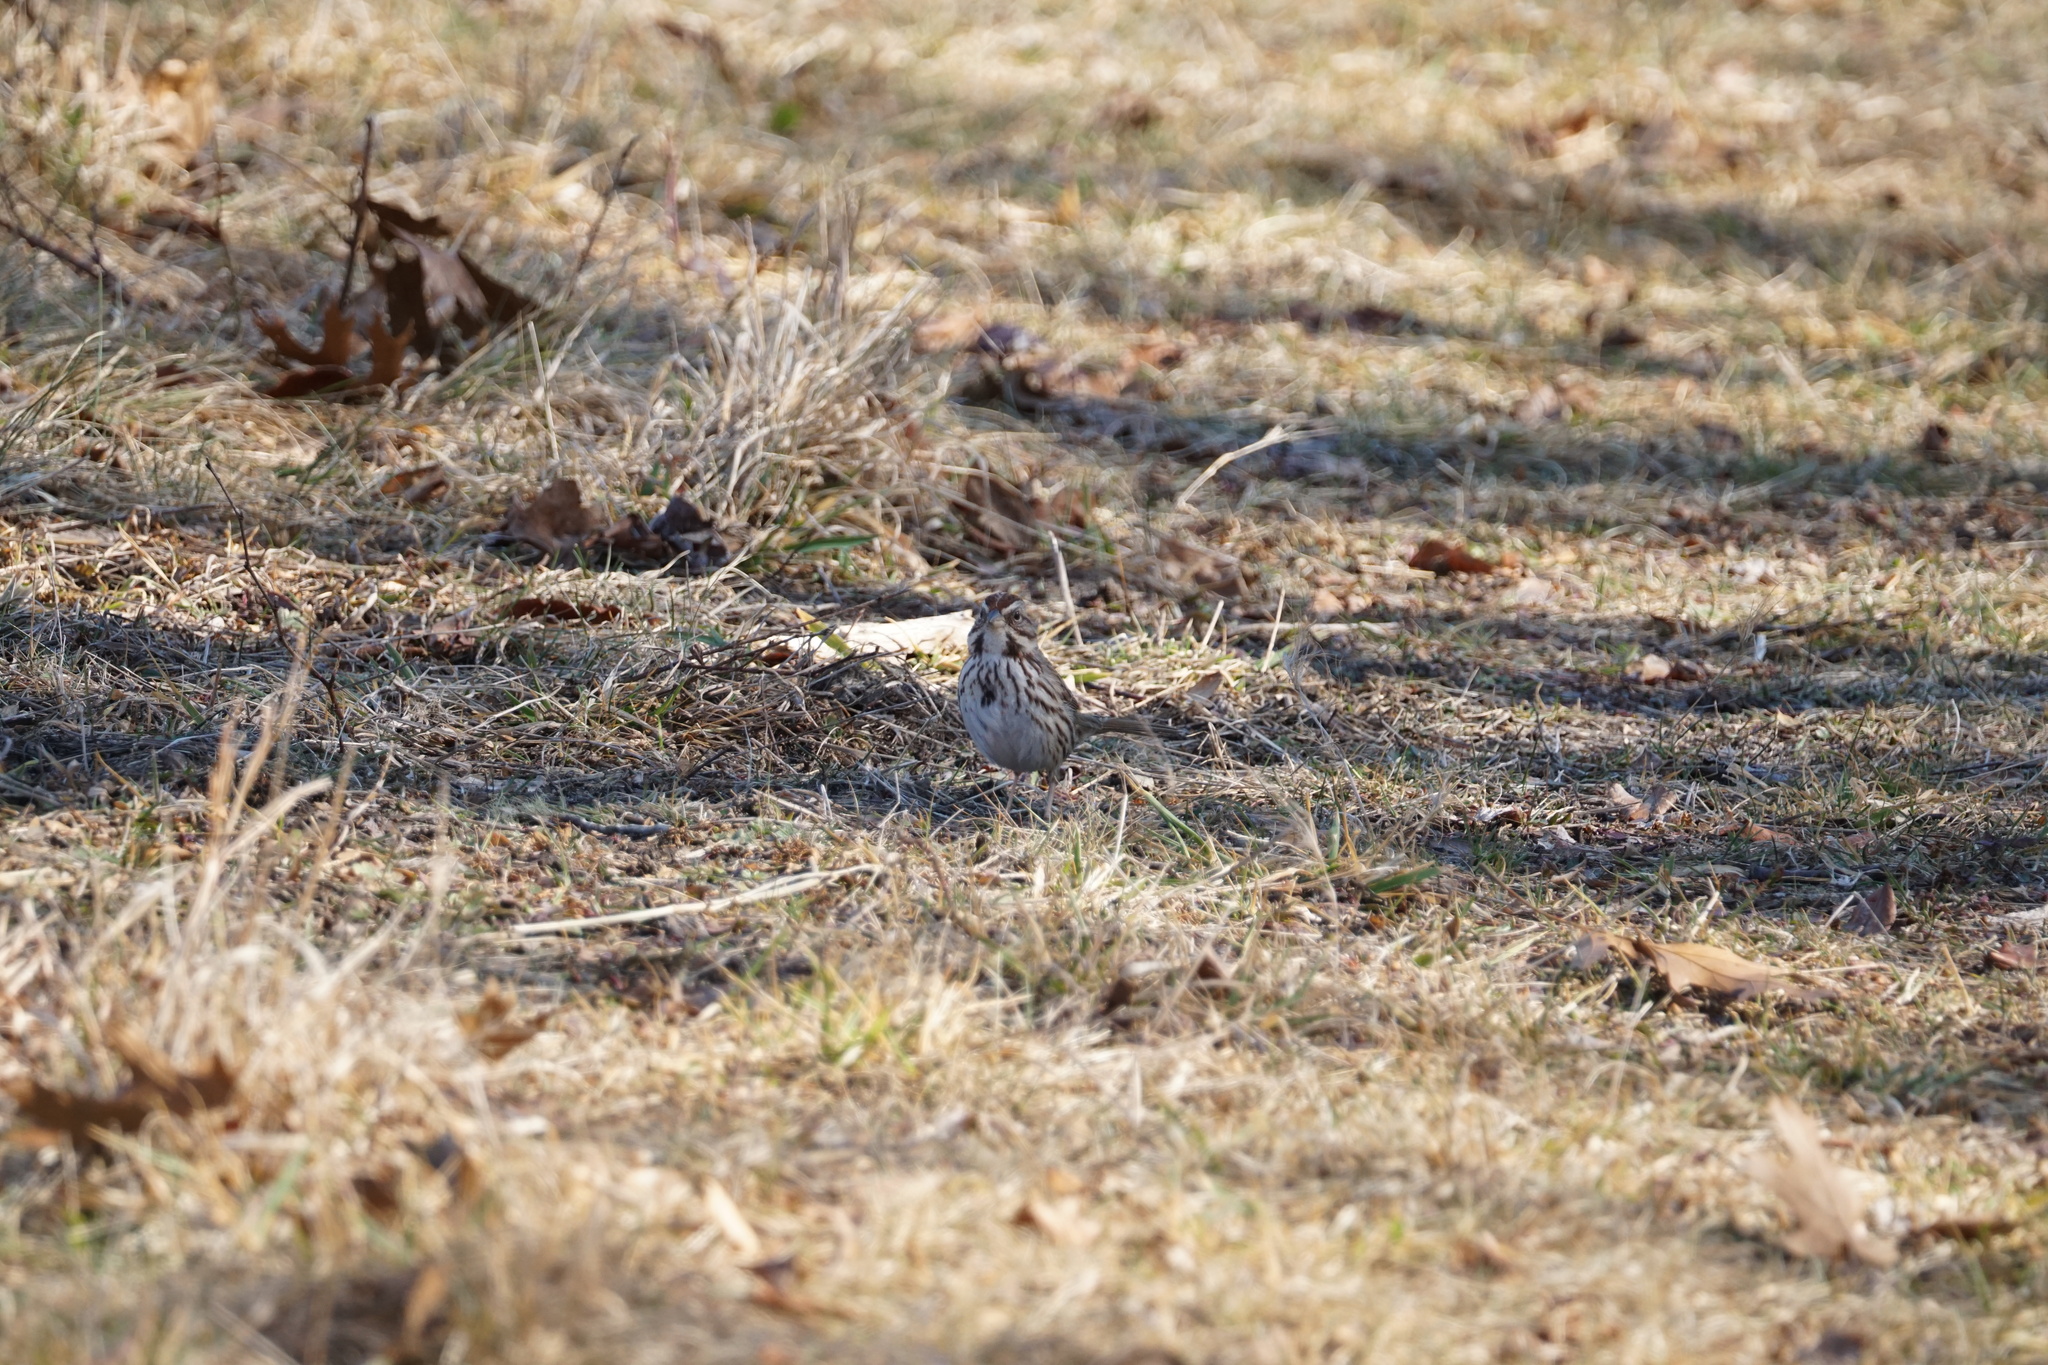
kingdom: Animalia
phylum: Chordata
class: Aves
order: Passeriformes
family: Passerellidae
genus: Melospiza
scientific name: Melospiza melodia
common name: Song sparrow
